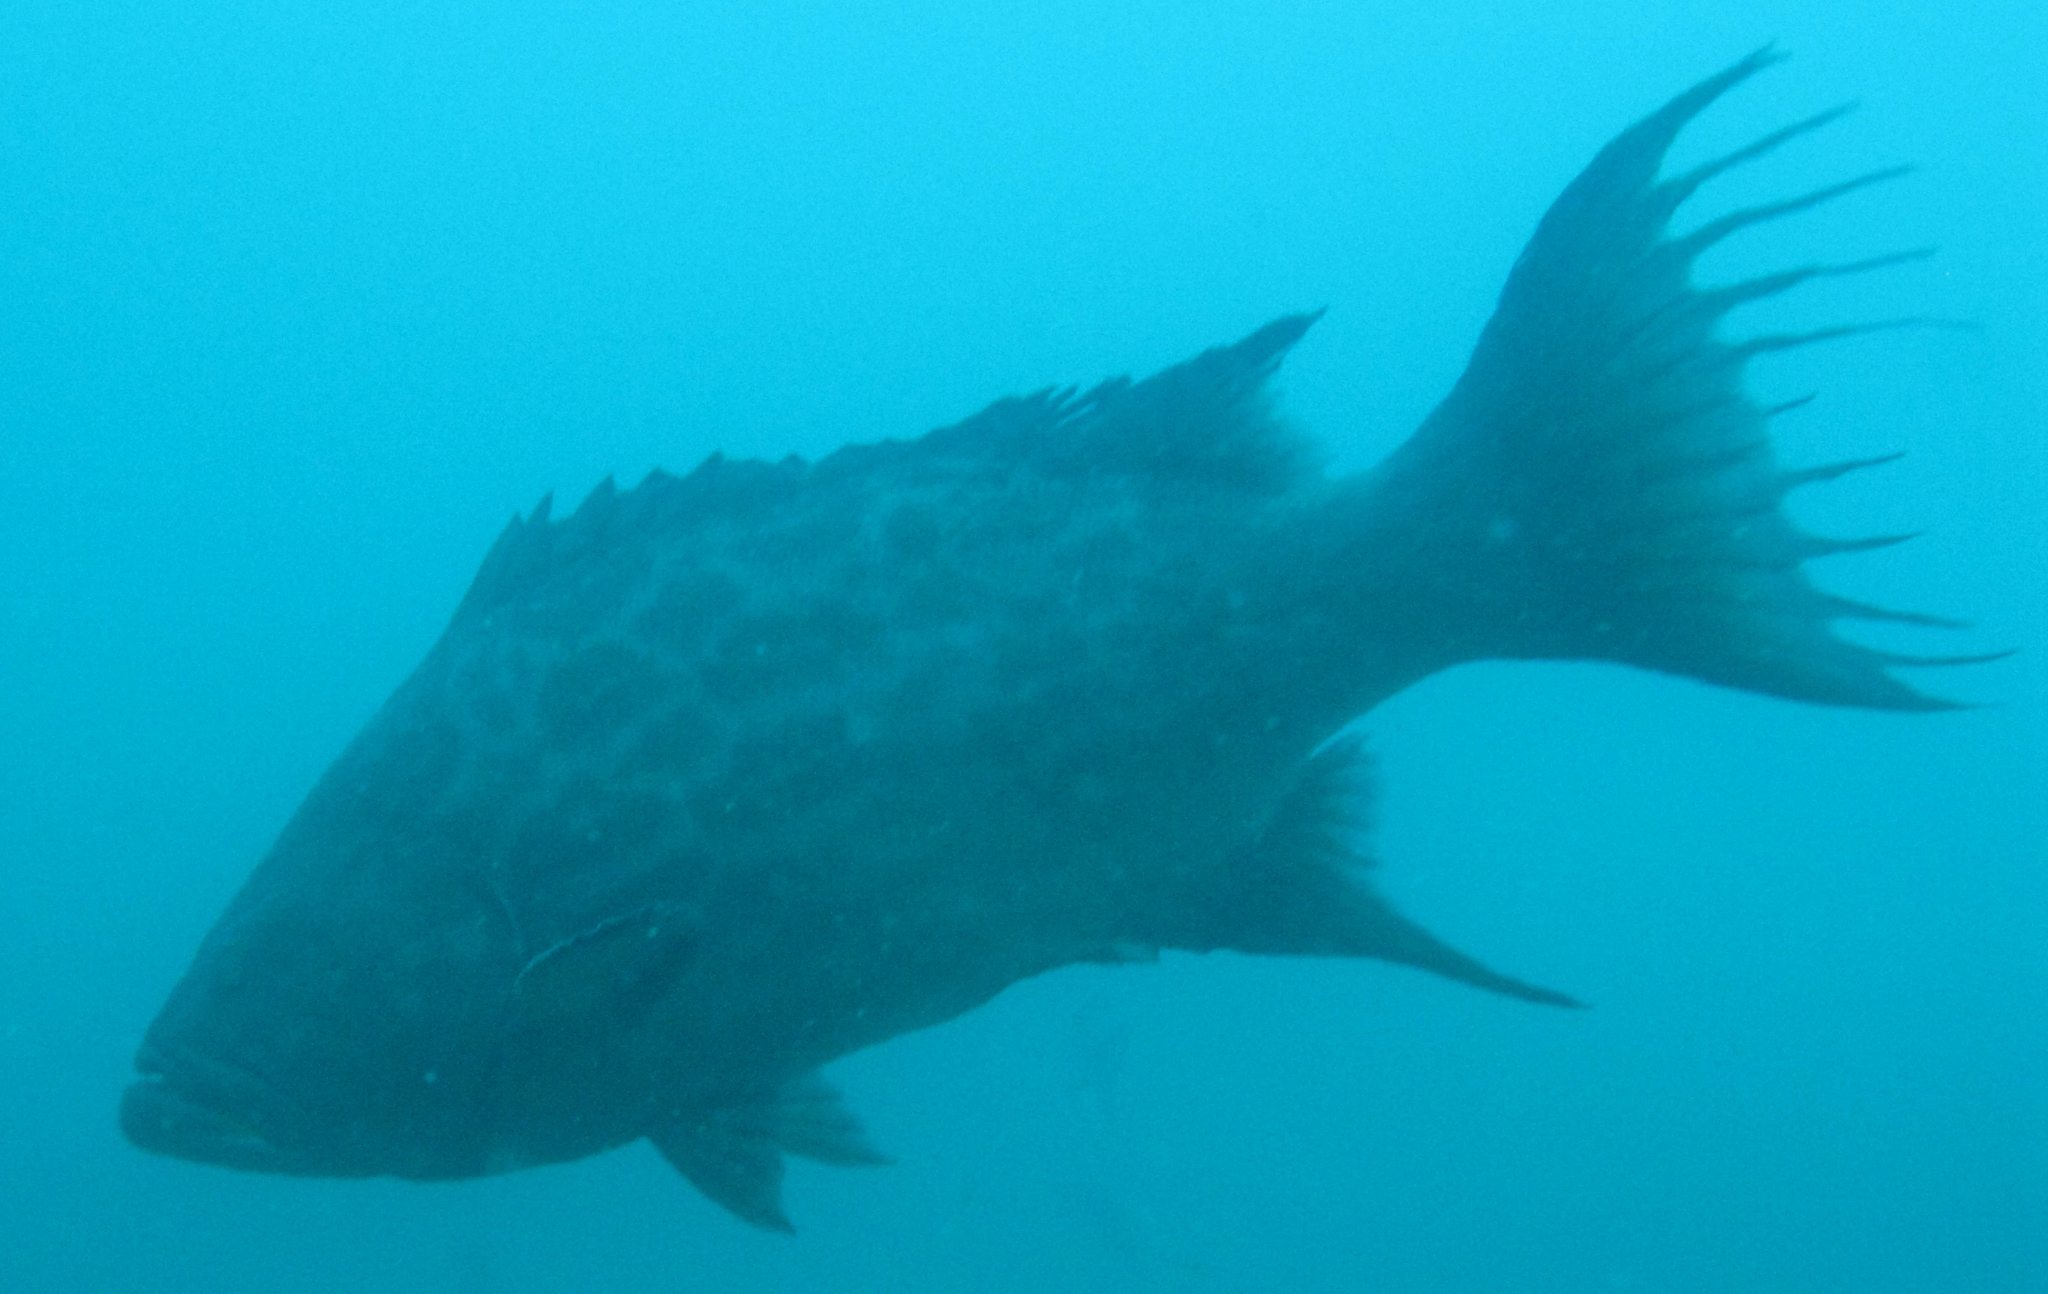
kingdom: Animalia
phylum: Chordata
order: Perciformes
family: Serranidae
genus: Mycteroperca
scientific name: Mycteroperca xenarcha
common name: Broomtail grouper
